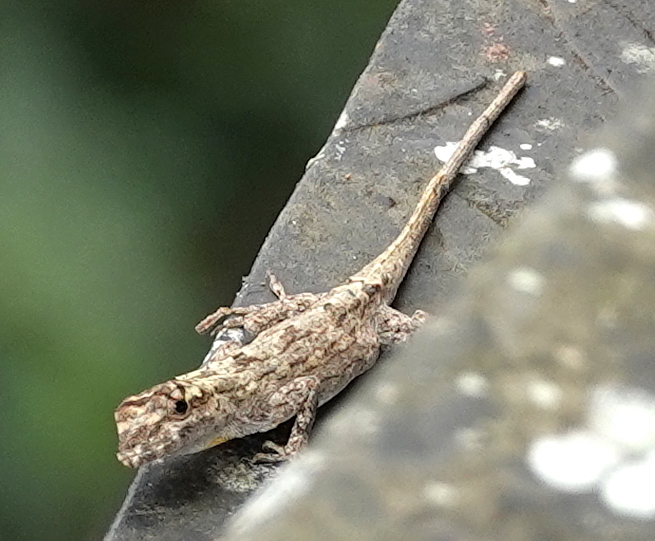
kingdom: Animalia
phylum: Chordata
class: Squamata
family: Dactyloidae
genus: Anolis
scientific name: Anolis ortonii
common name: Bark anole
